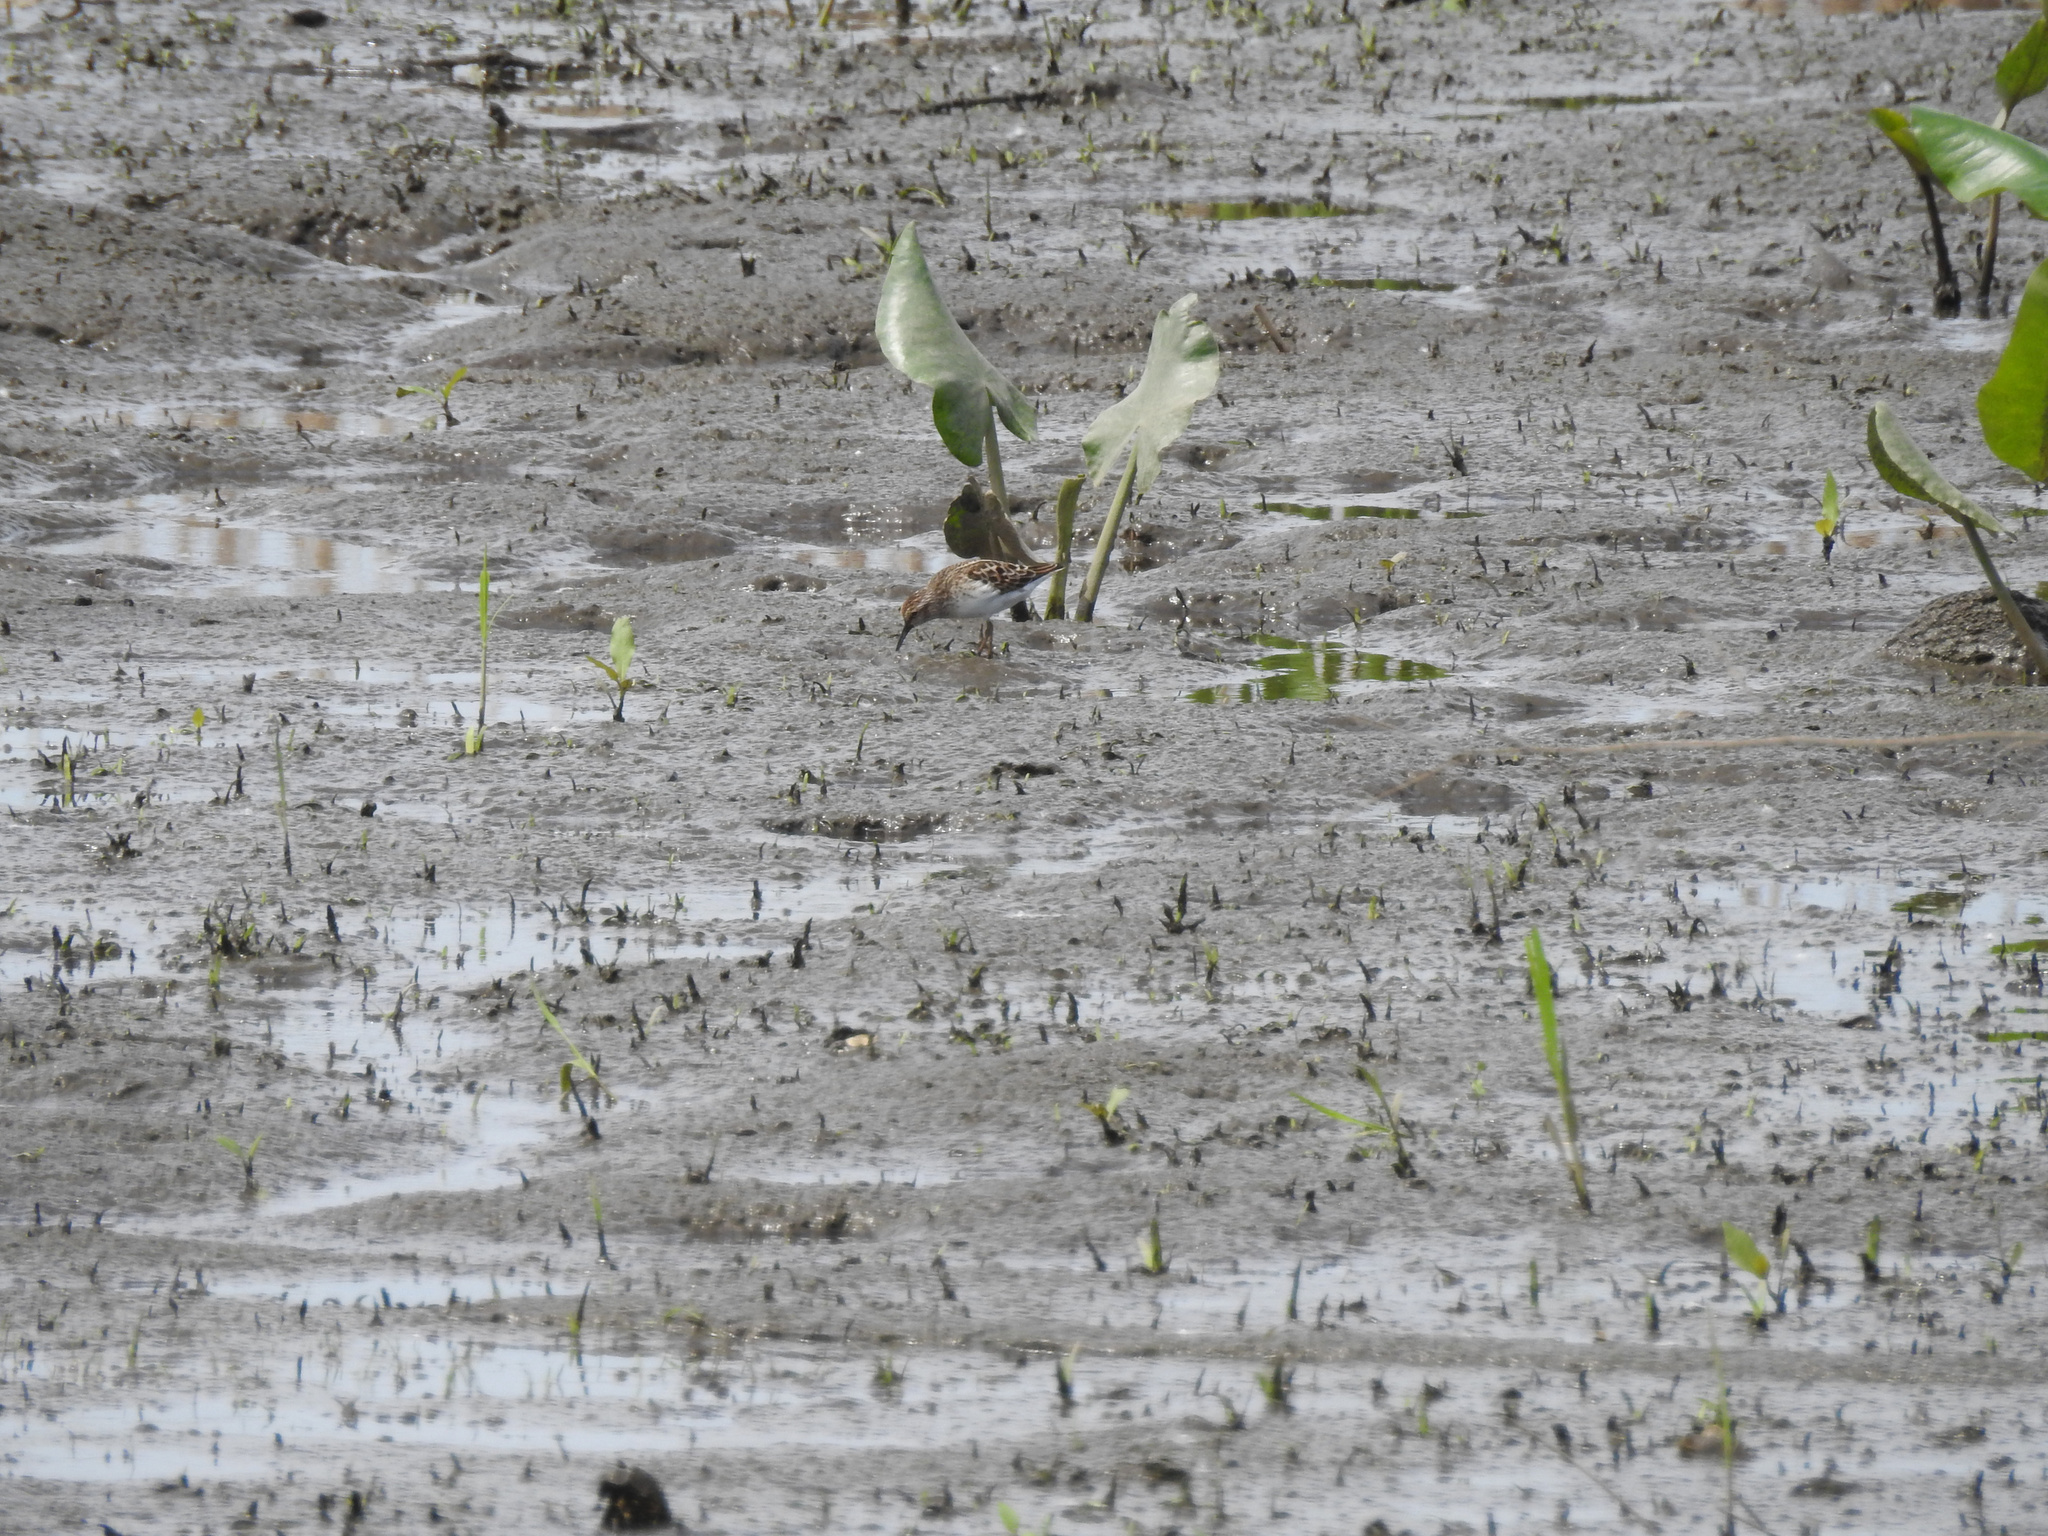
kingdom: Animalia
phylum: Chordata
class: Aves
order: Charadriiformes
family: Scolopacidae
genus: Calidris
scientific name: Calidris minutilla
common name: Least sandpiper
